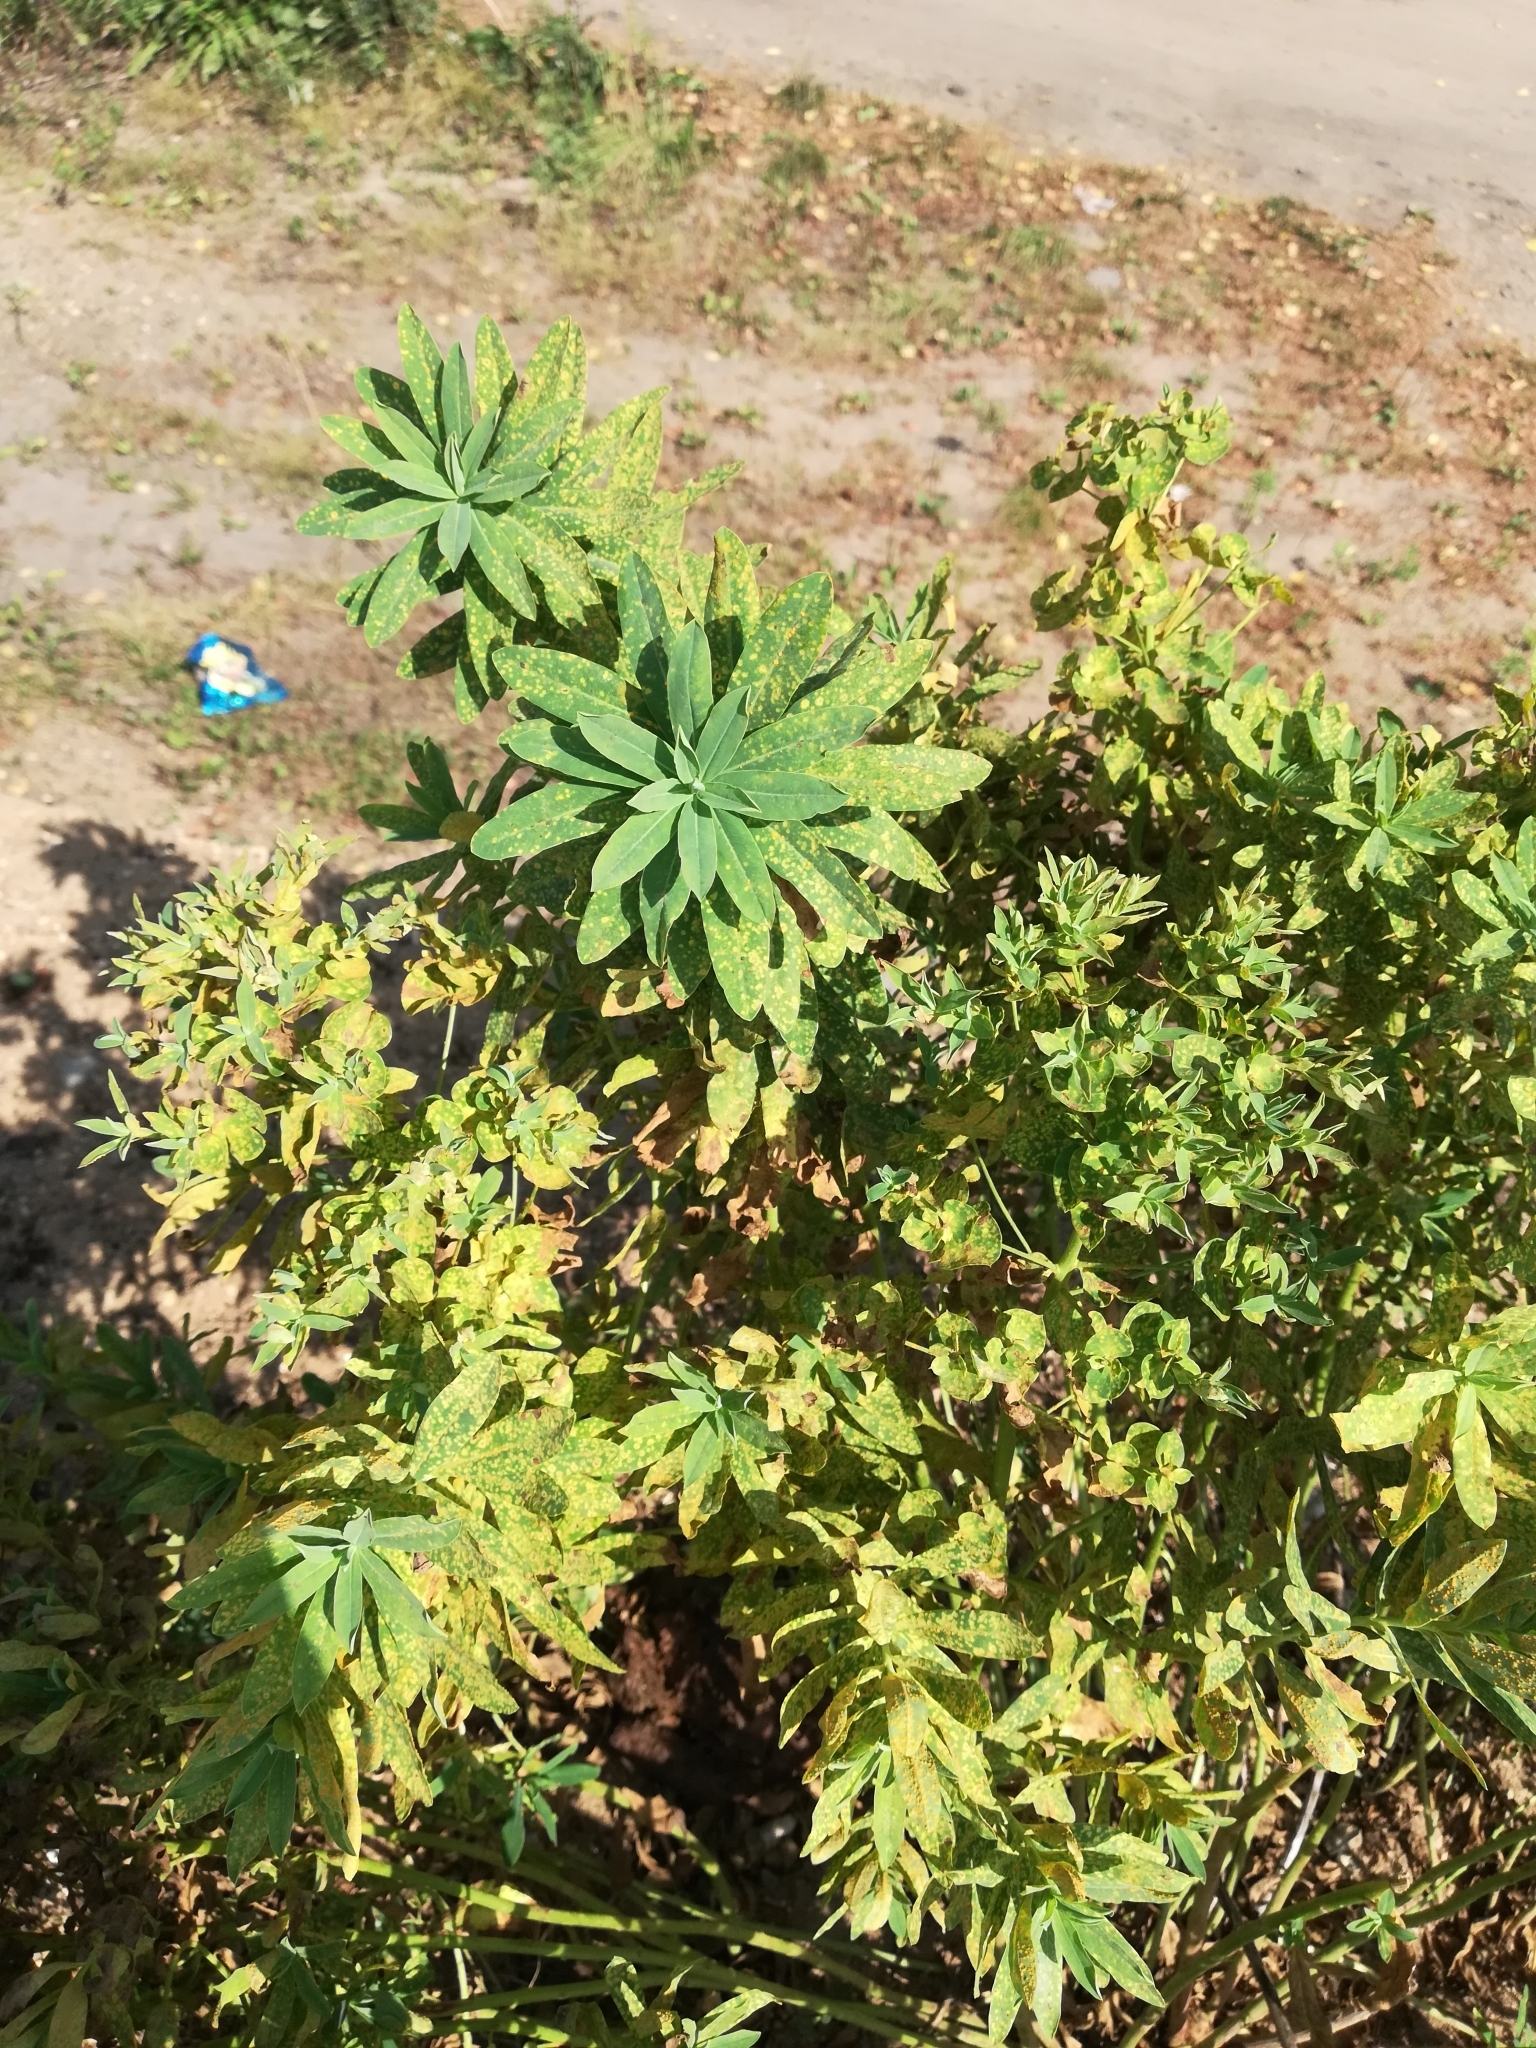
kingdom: Plantae
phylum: Tracheophyta
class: Magnoliopsida
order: Malpighiales
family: Euphorbiaceae
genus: Euphorbia
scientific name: Euphorbia esula
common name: Leafy spurge
